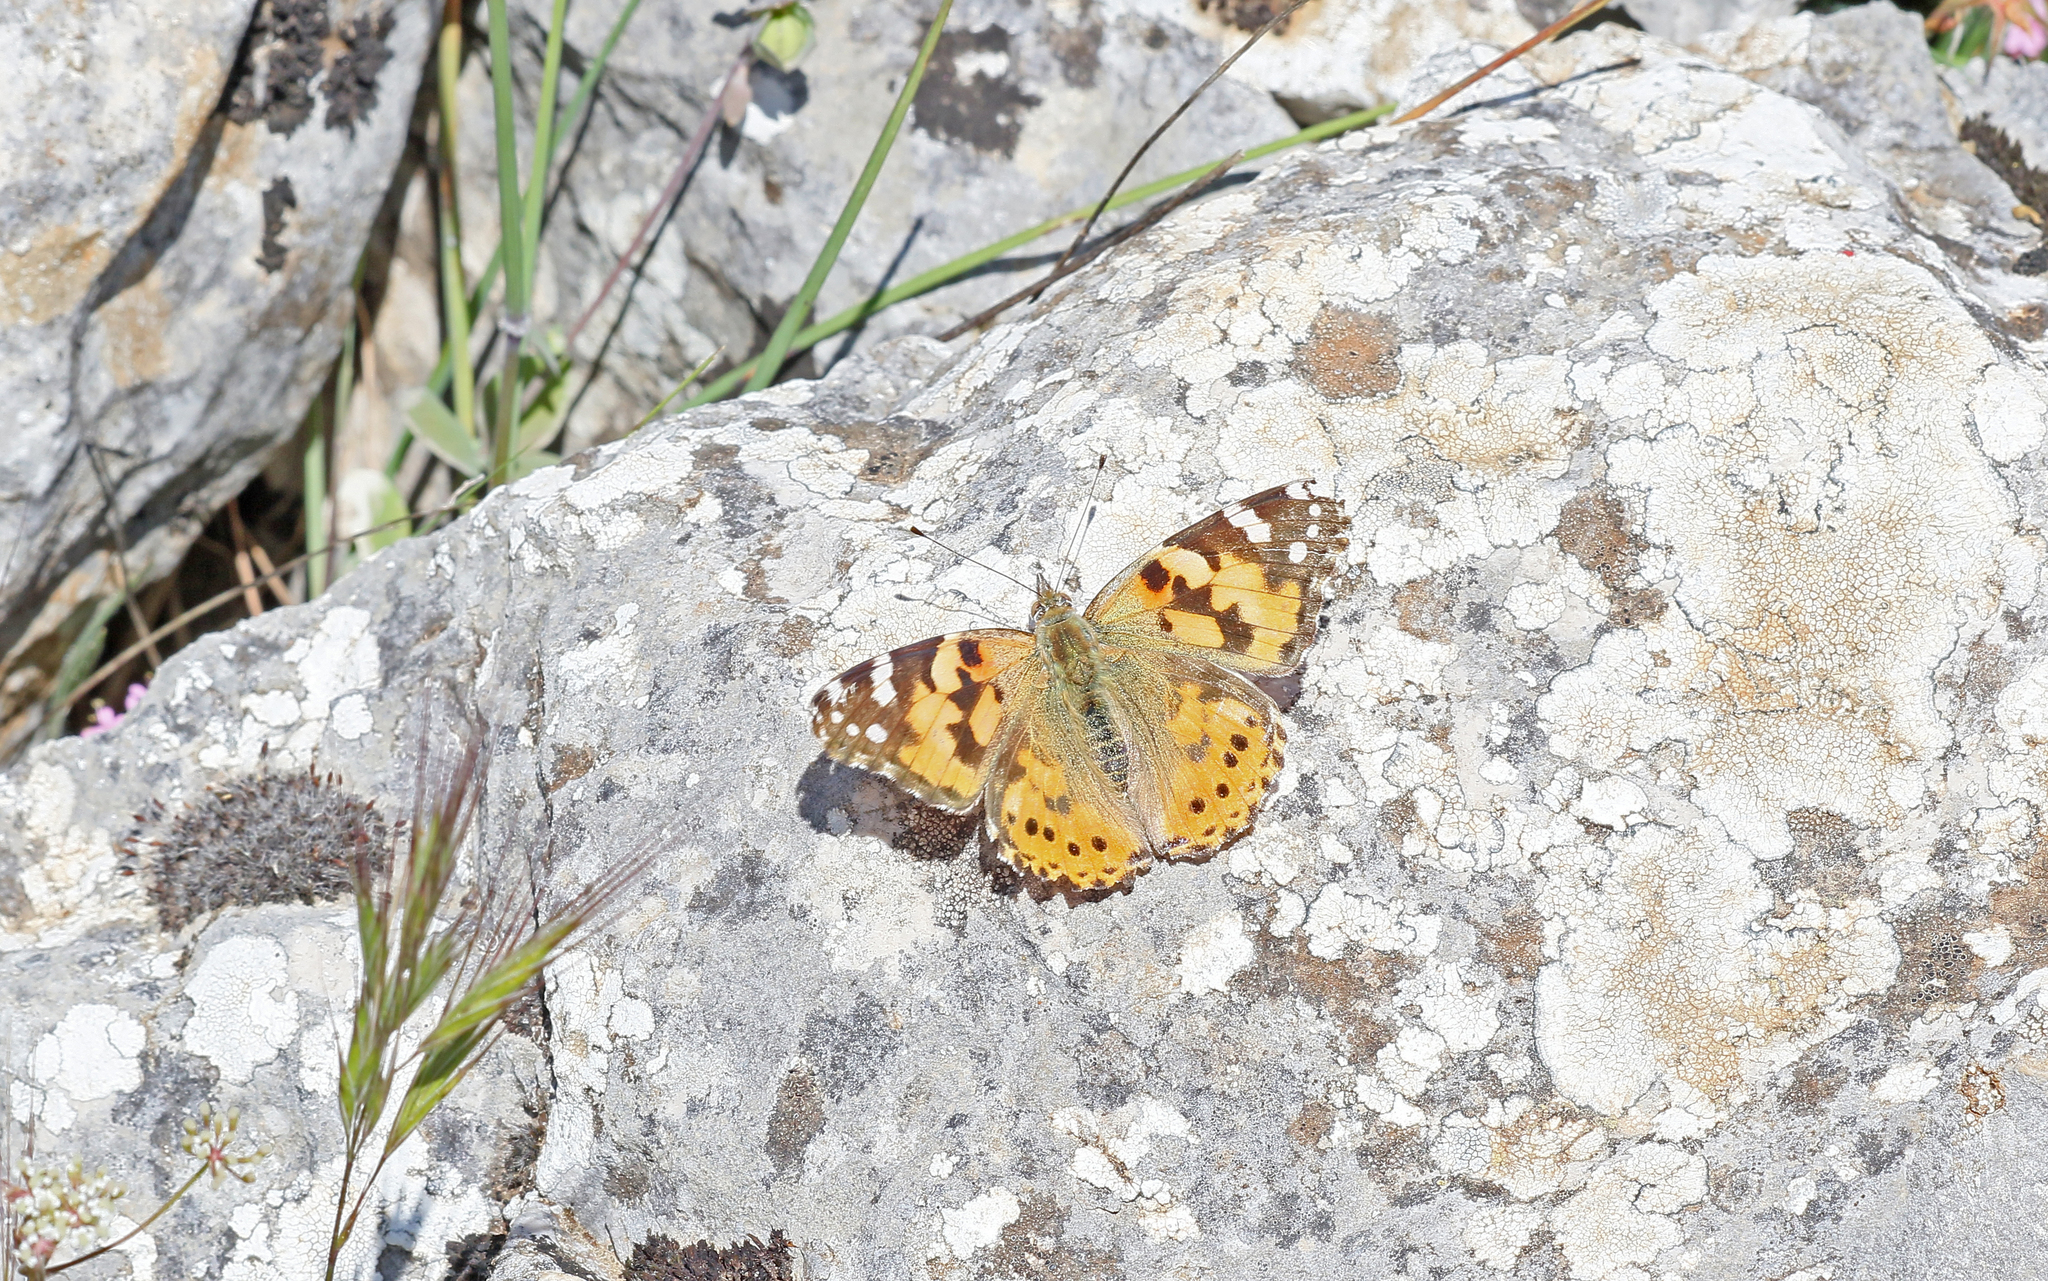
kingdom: Animalia
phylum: Arthropoda
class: Insecta
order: Lepidoptera
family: Nymphalidae
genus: Vanessa
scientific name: Vanessa cardui
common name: Painted lady
